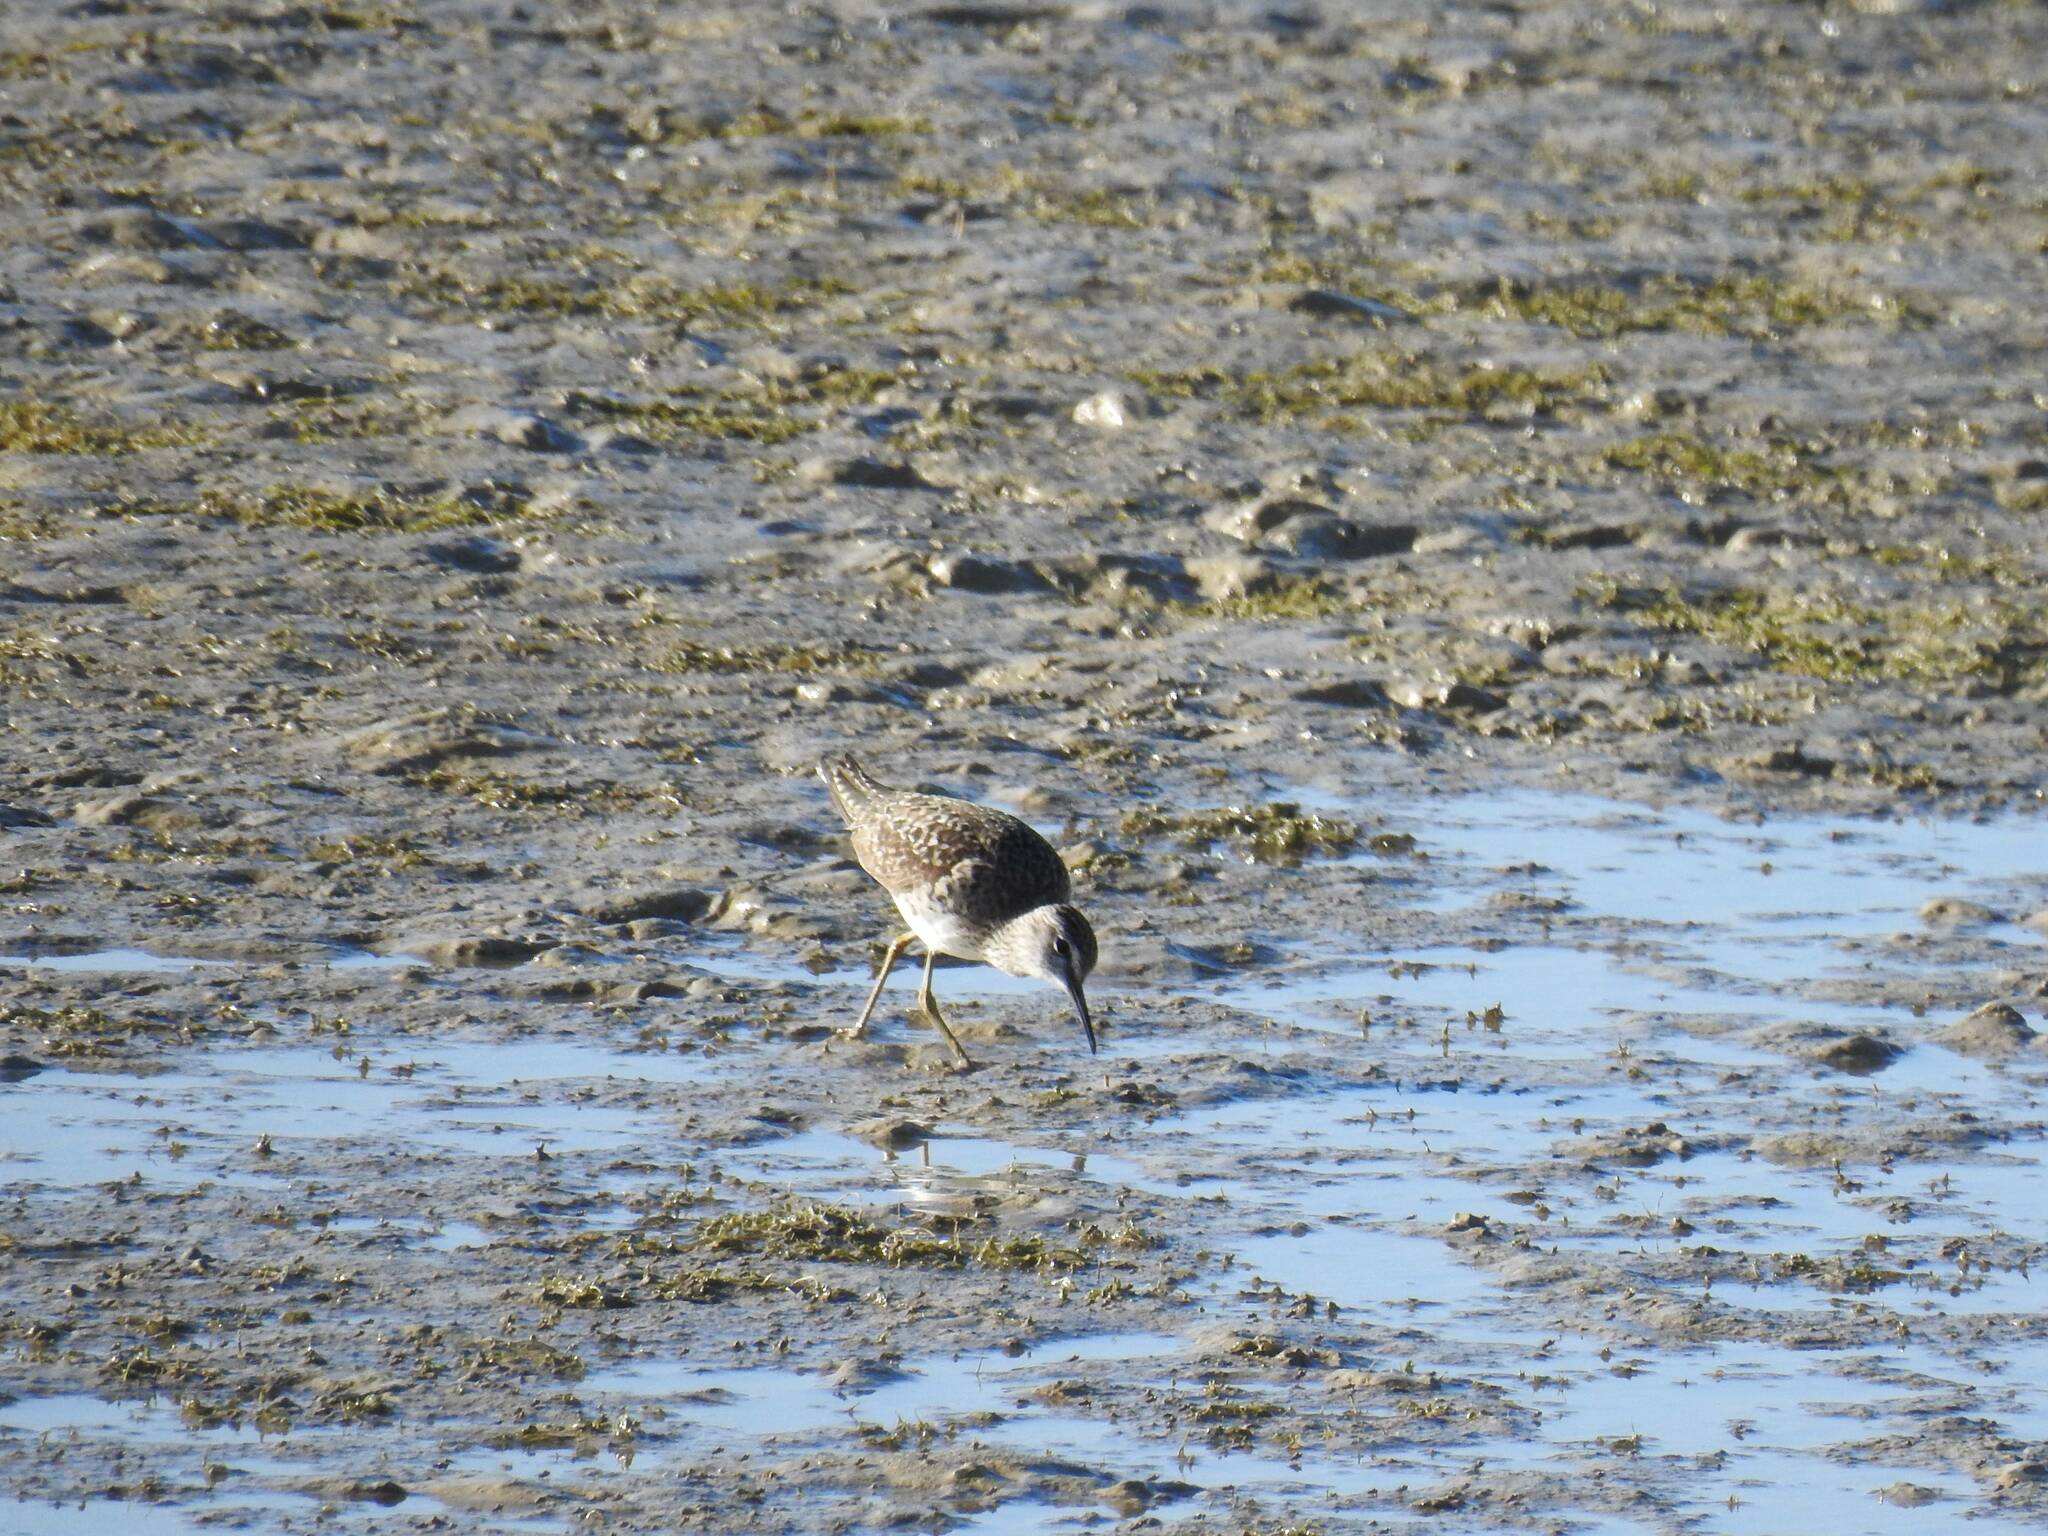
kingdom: Animalia
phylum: Chordata
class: Aves
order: Charadriiformes
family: Scolopacidae
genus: Tringa
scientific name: Tringa glareola
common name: Wood sandpiper
